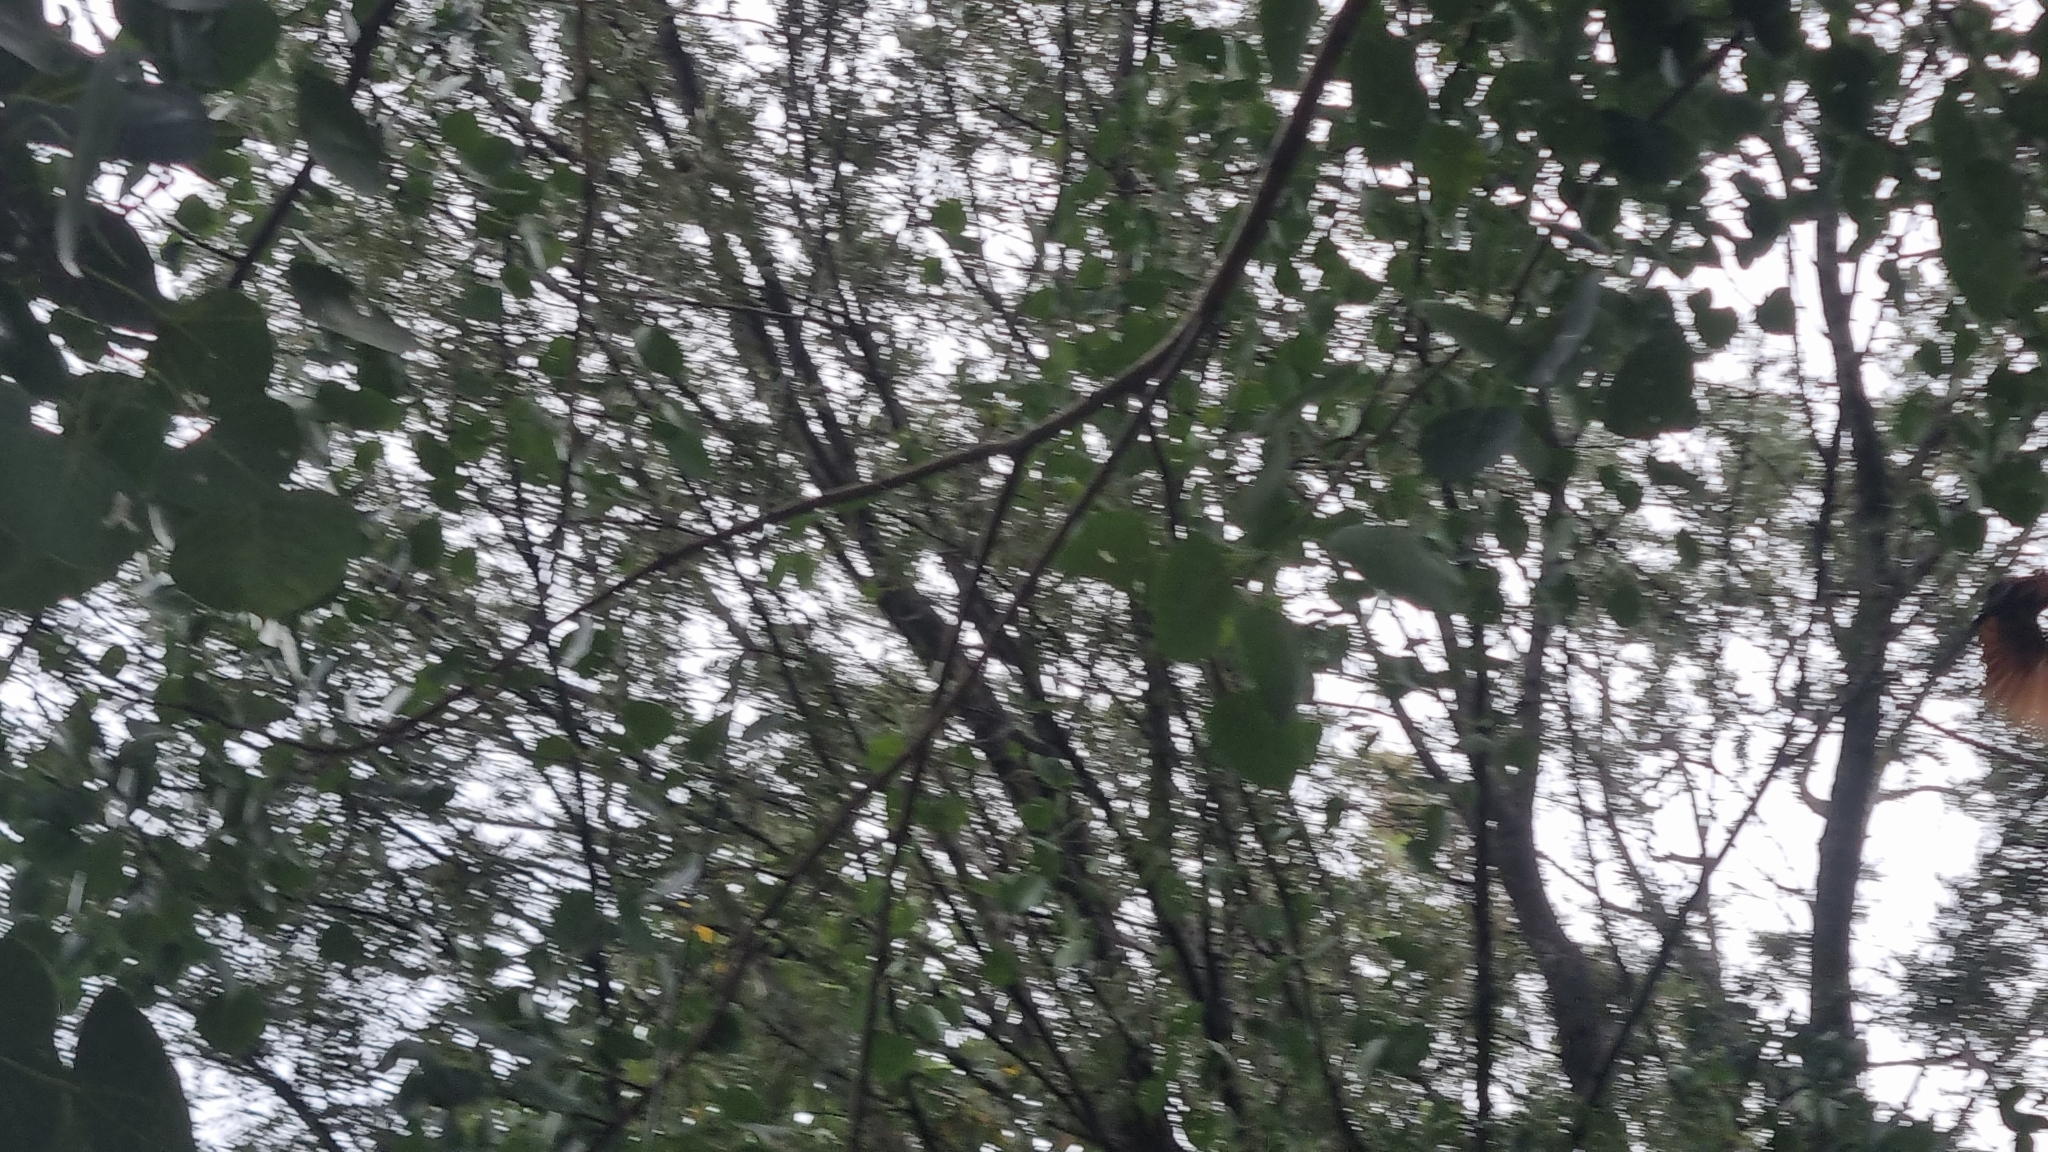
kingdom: Animalia
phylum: Chordata
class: Aves
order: Cuculiformes
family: Cuculidae
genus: Centropus
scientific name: Centropus sinensis
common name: Greater coucal
